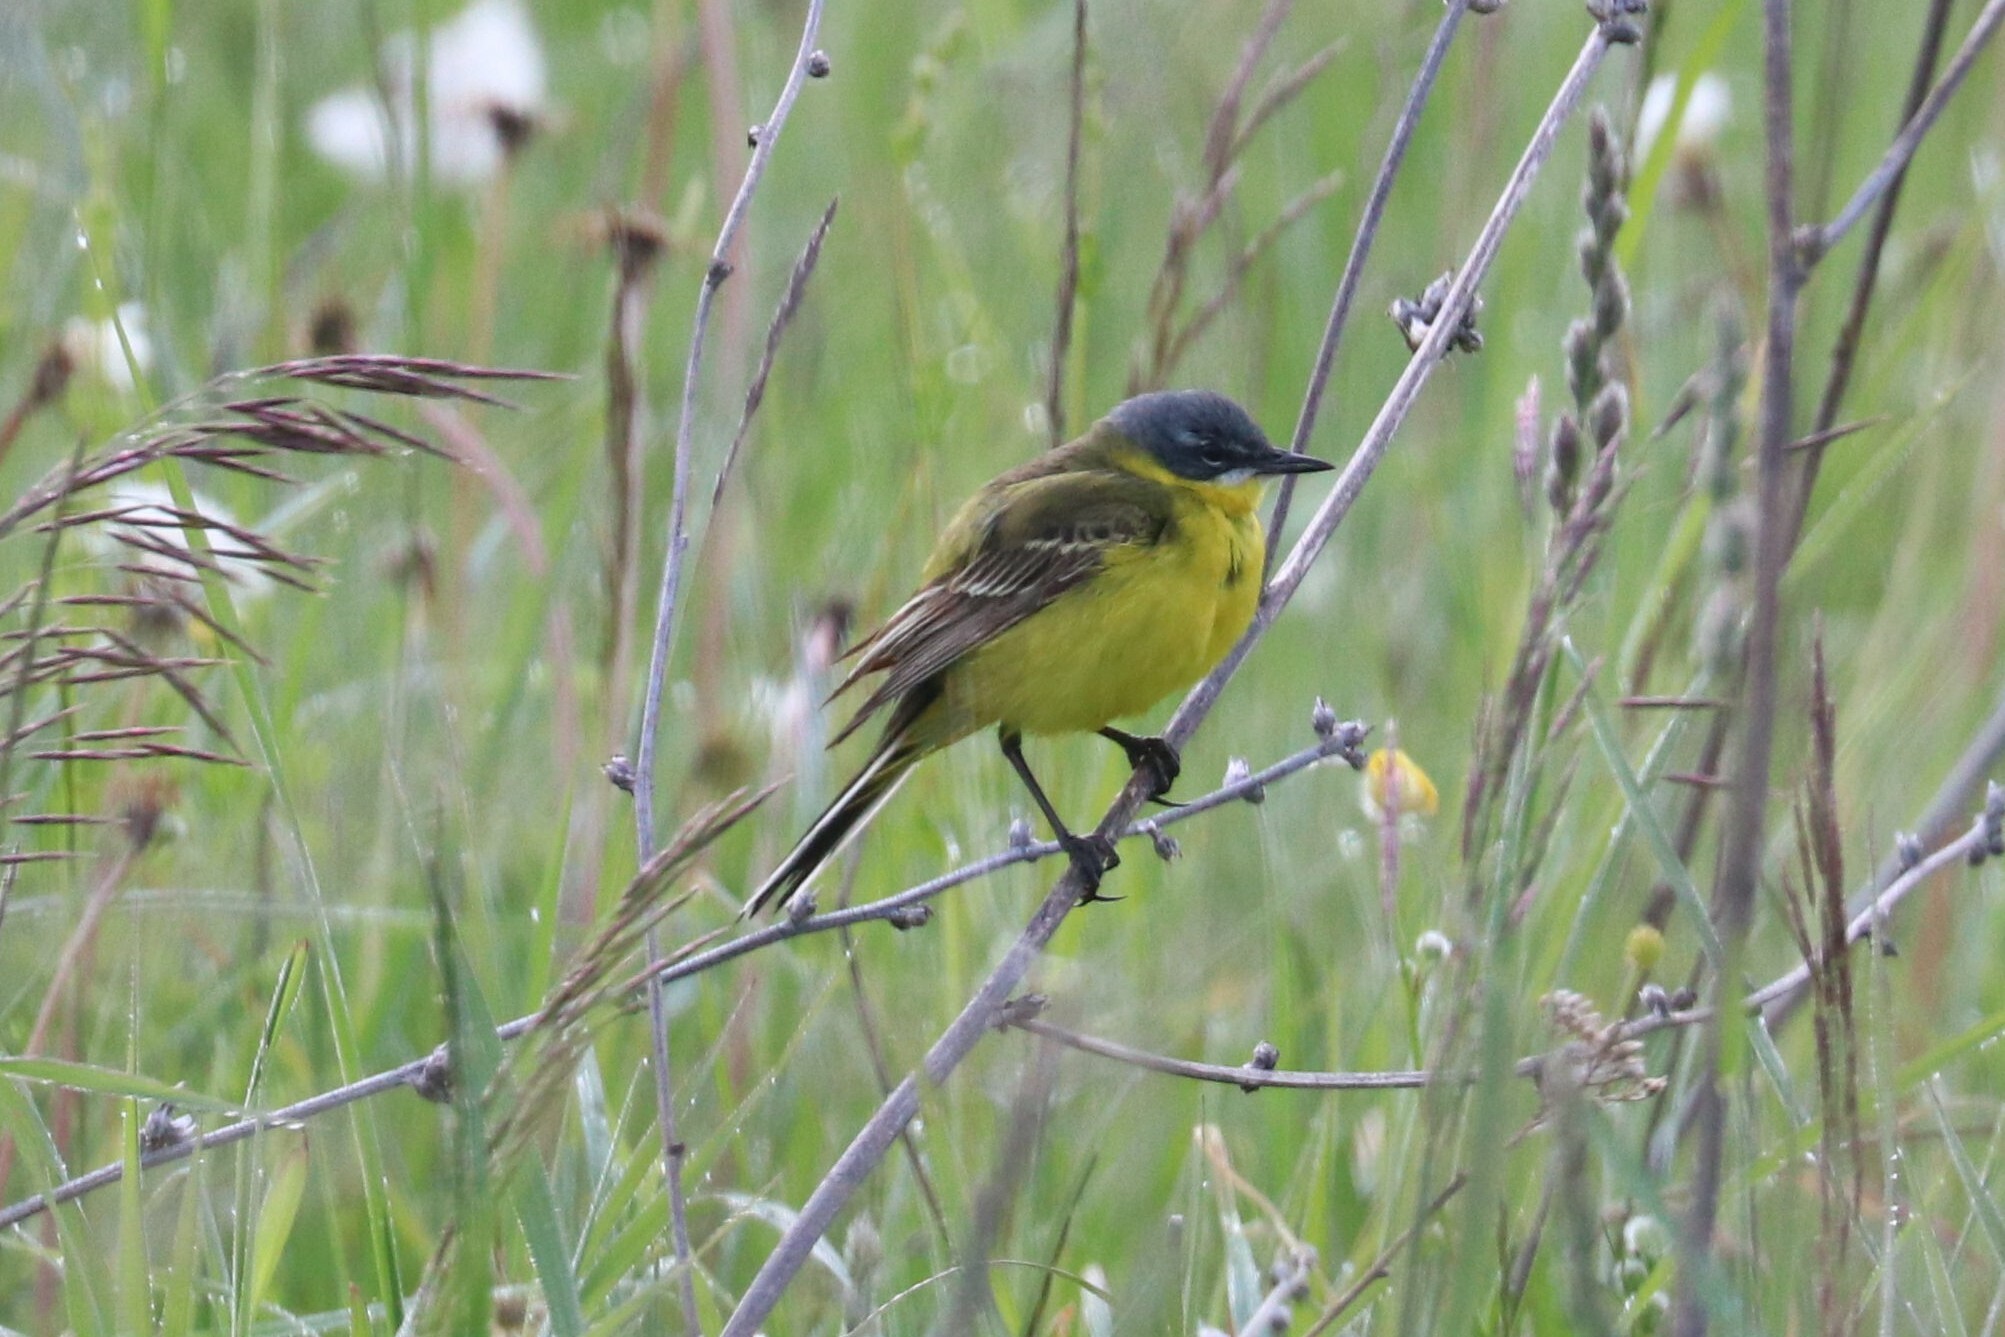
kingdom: Animalia
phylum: Chordata
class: Aves
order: Passeriformes
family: Motacillidae
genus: Motacilla
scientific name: Motacilla flava
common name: Western yellow wagtail
